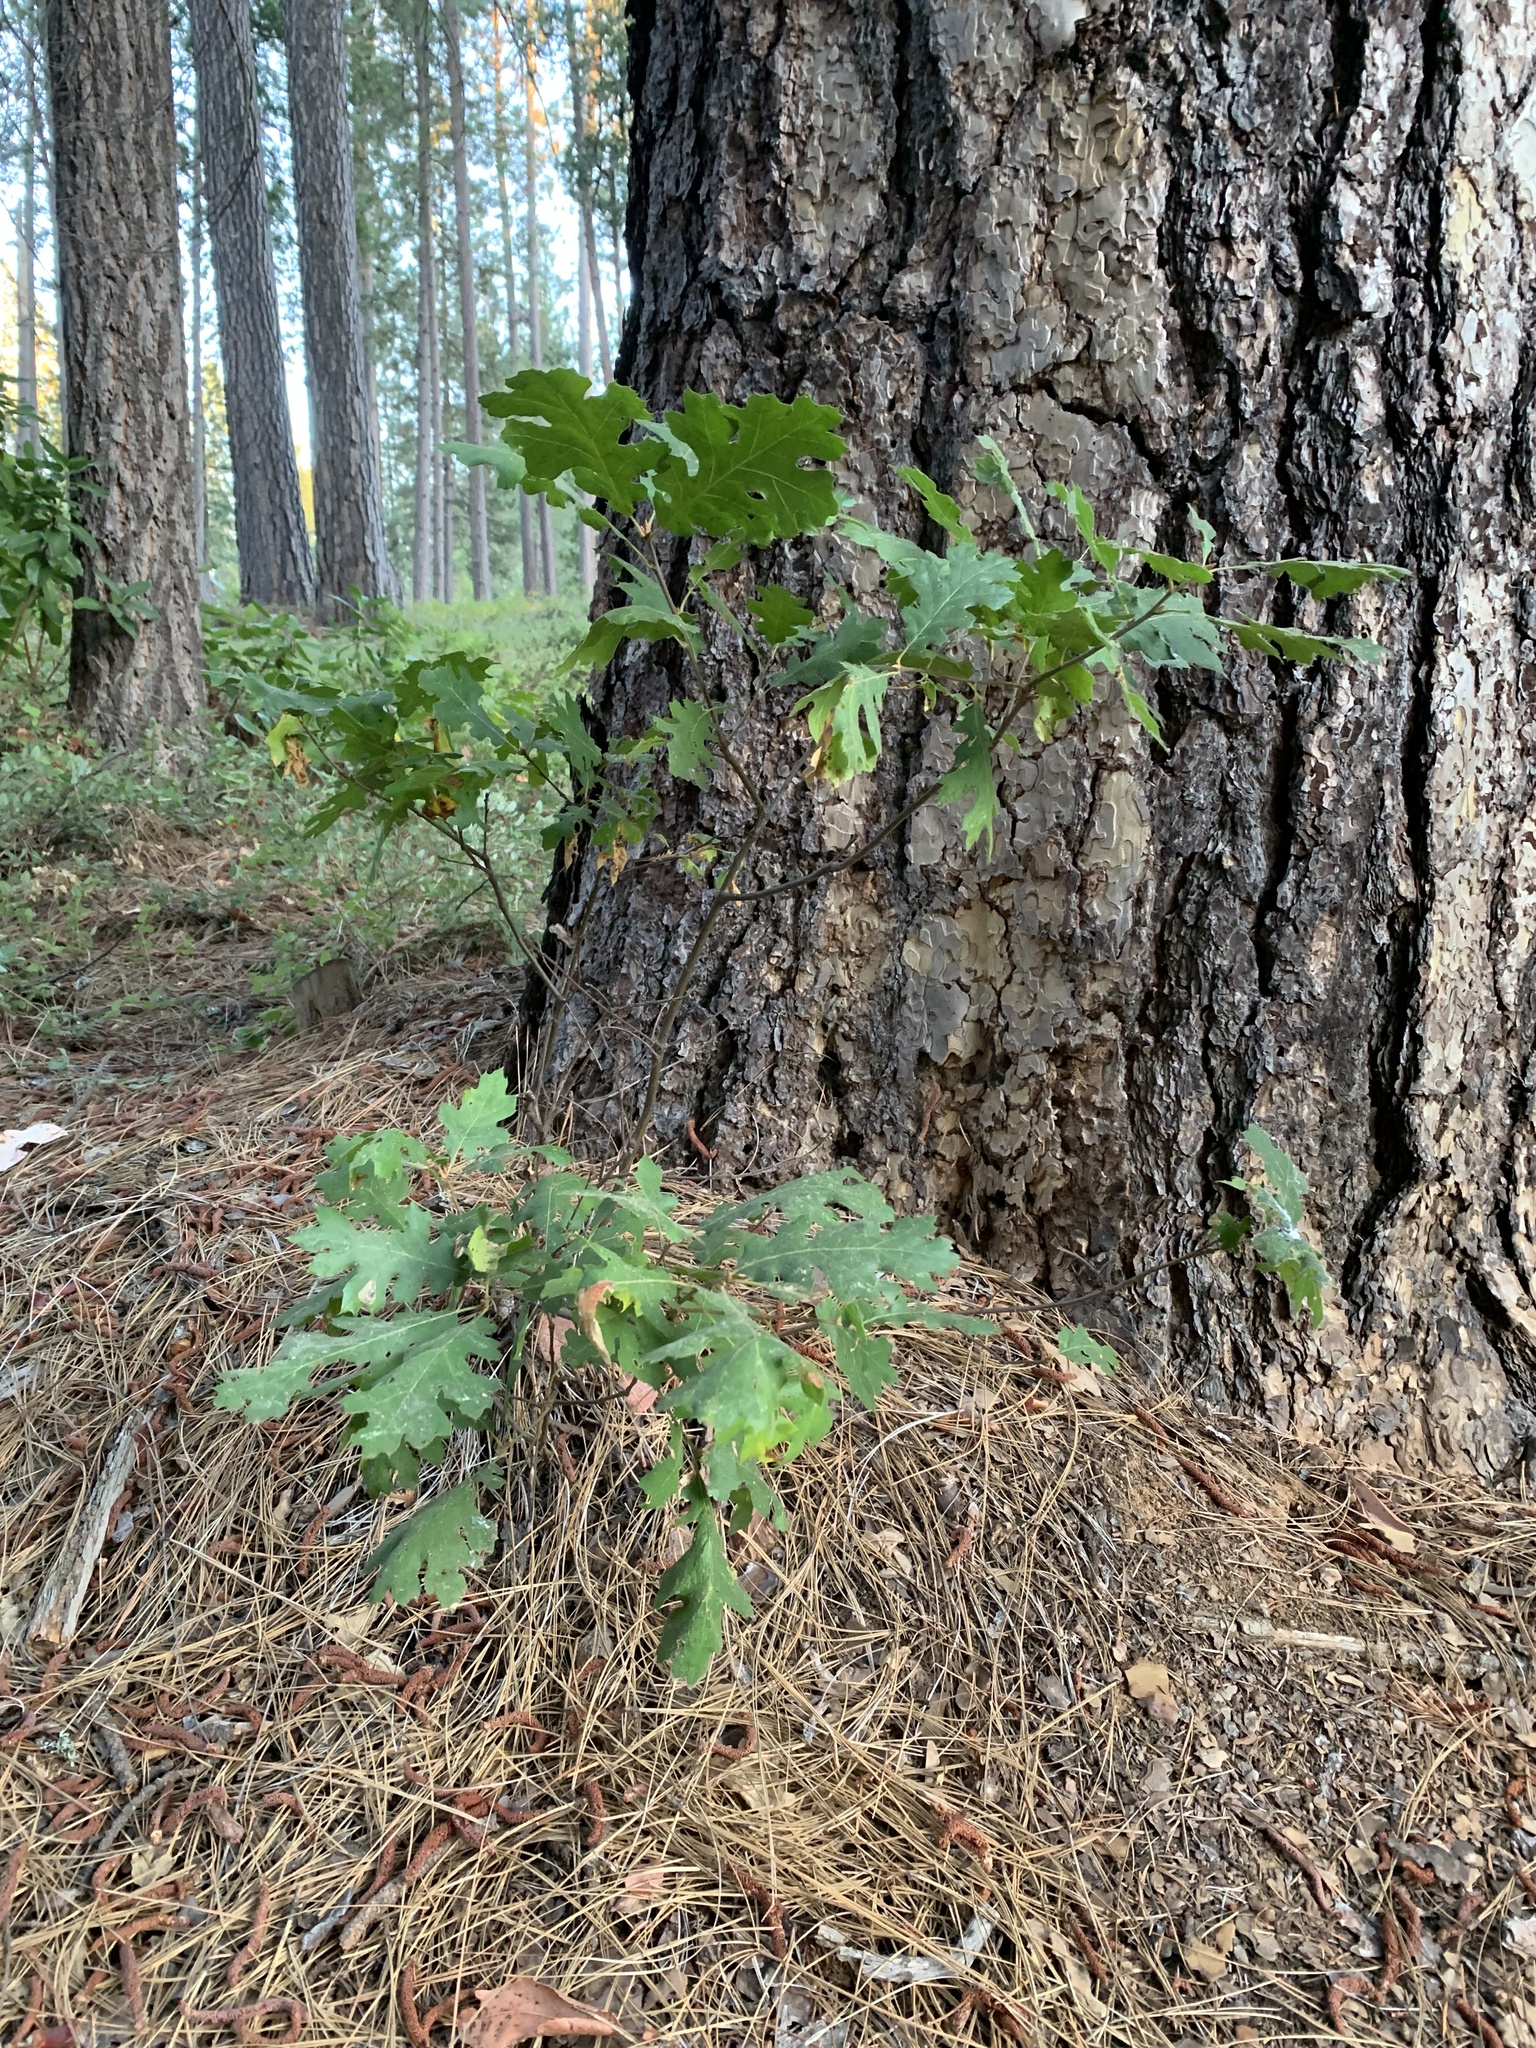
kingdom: Plantae
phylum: Tracheophyta
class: Magnoliopsida
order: Fagales
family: Fagaceae
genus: Quercus
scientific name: Quercus kelloggii
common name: California black oak
